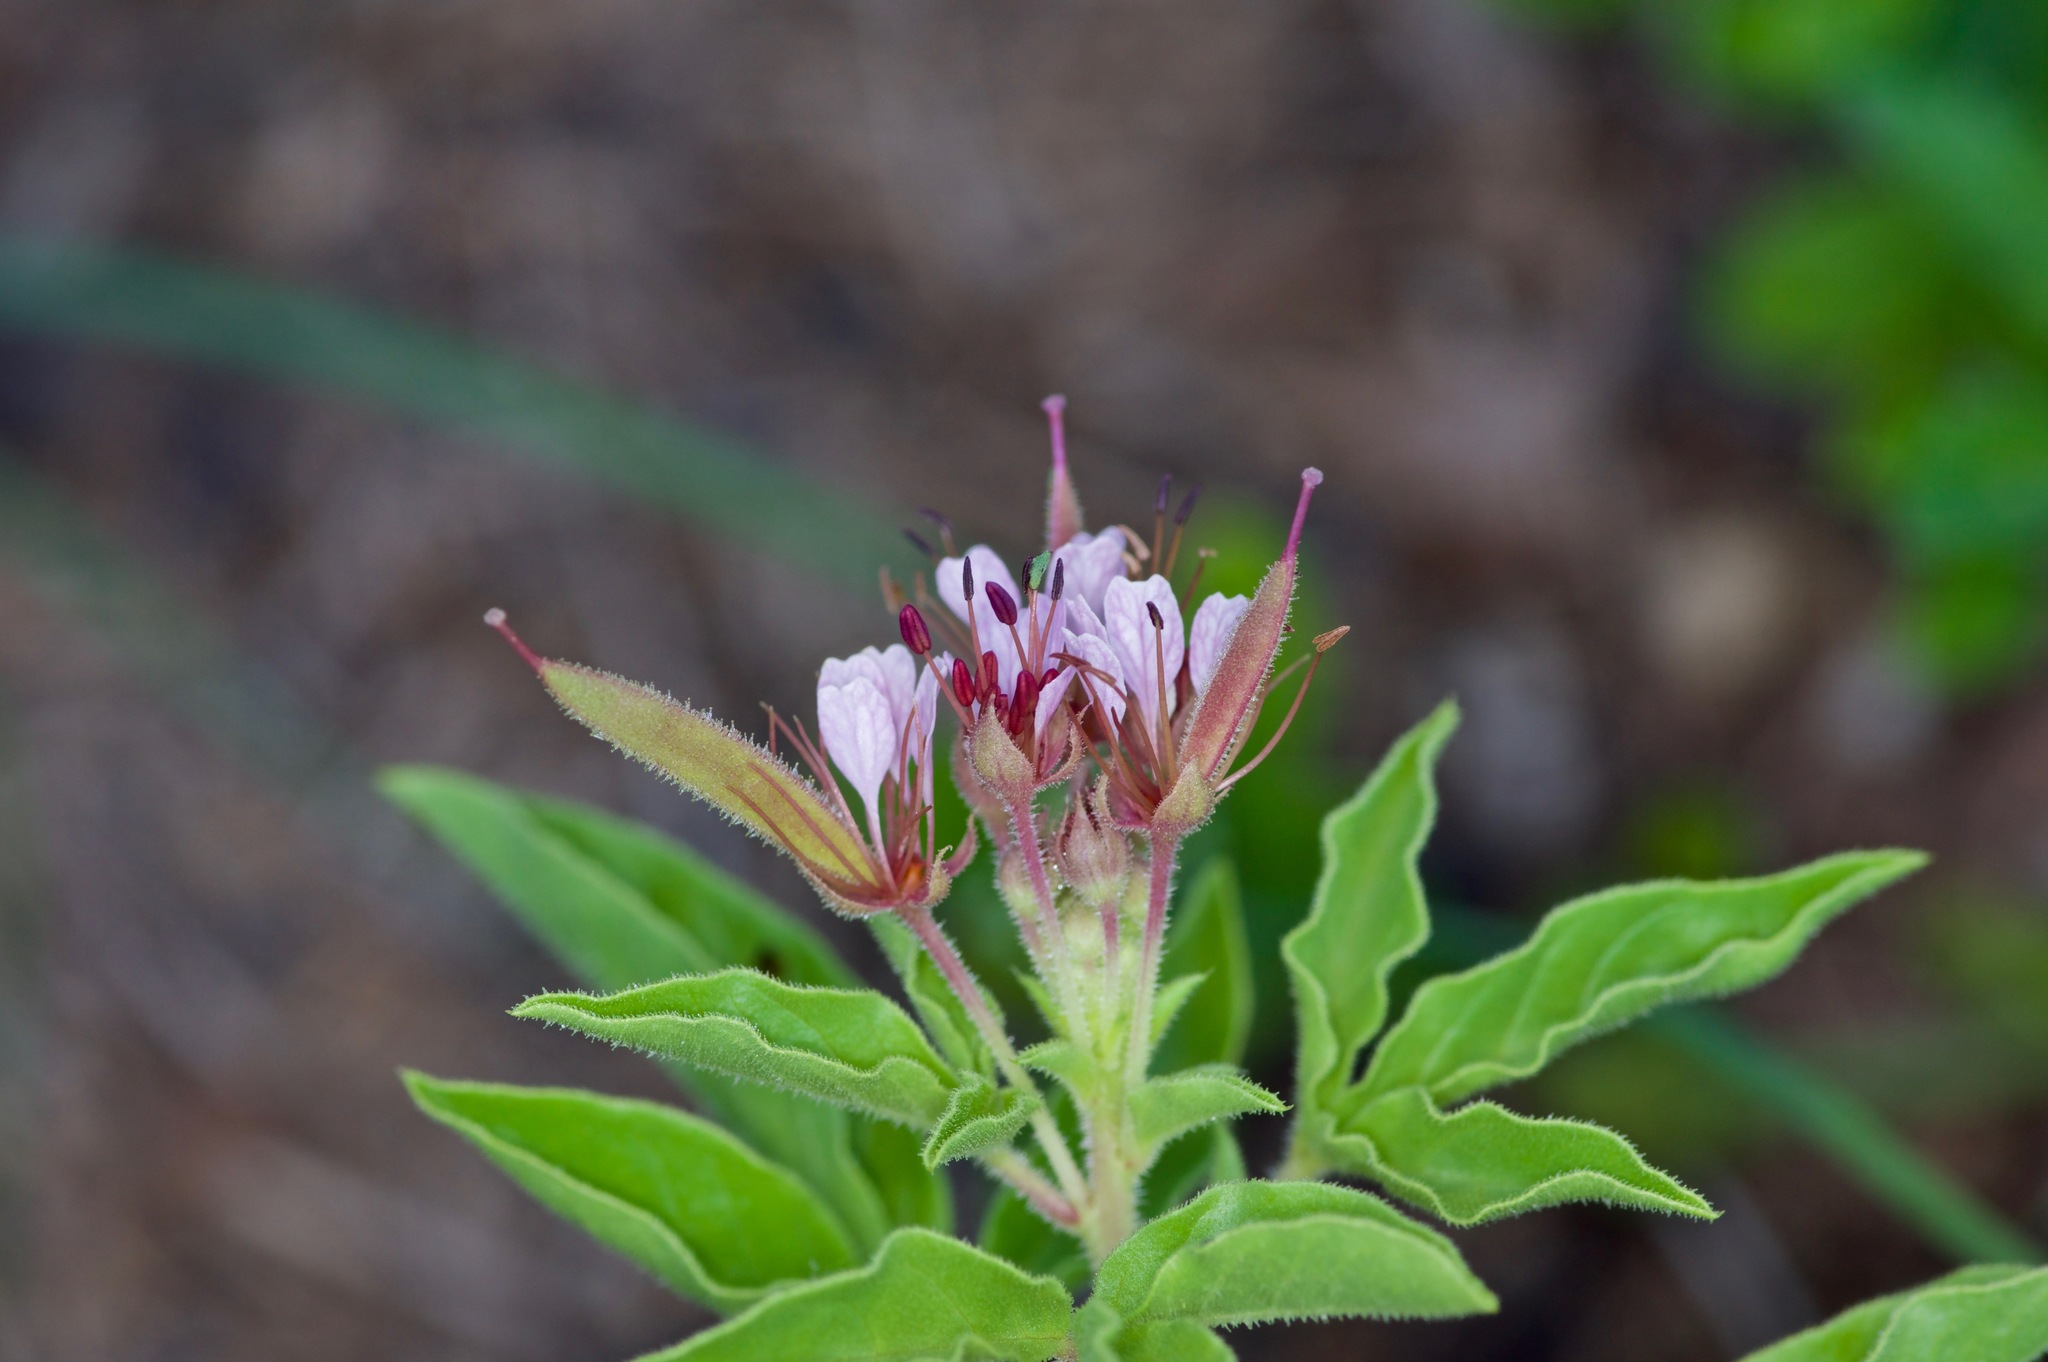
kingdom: Plantae
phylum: Tracheophyta
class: Magnoliopsida
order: Brassicales
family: Cleomaceae
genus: Polanisia
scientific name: Polanisia dodecandra
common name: Clammyweed
